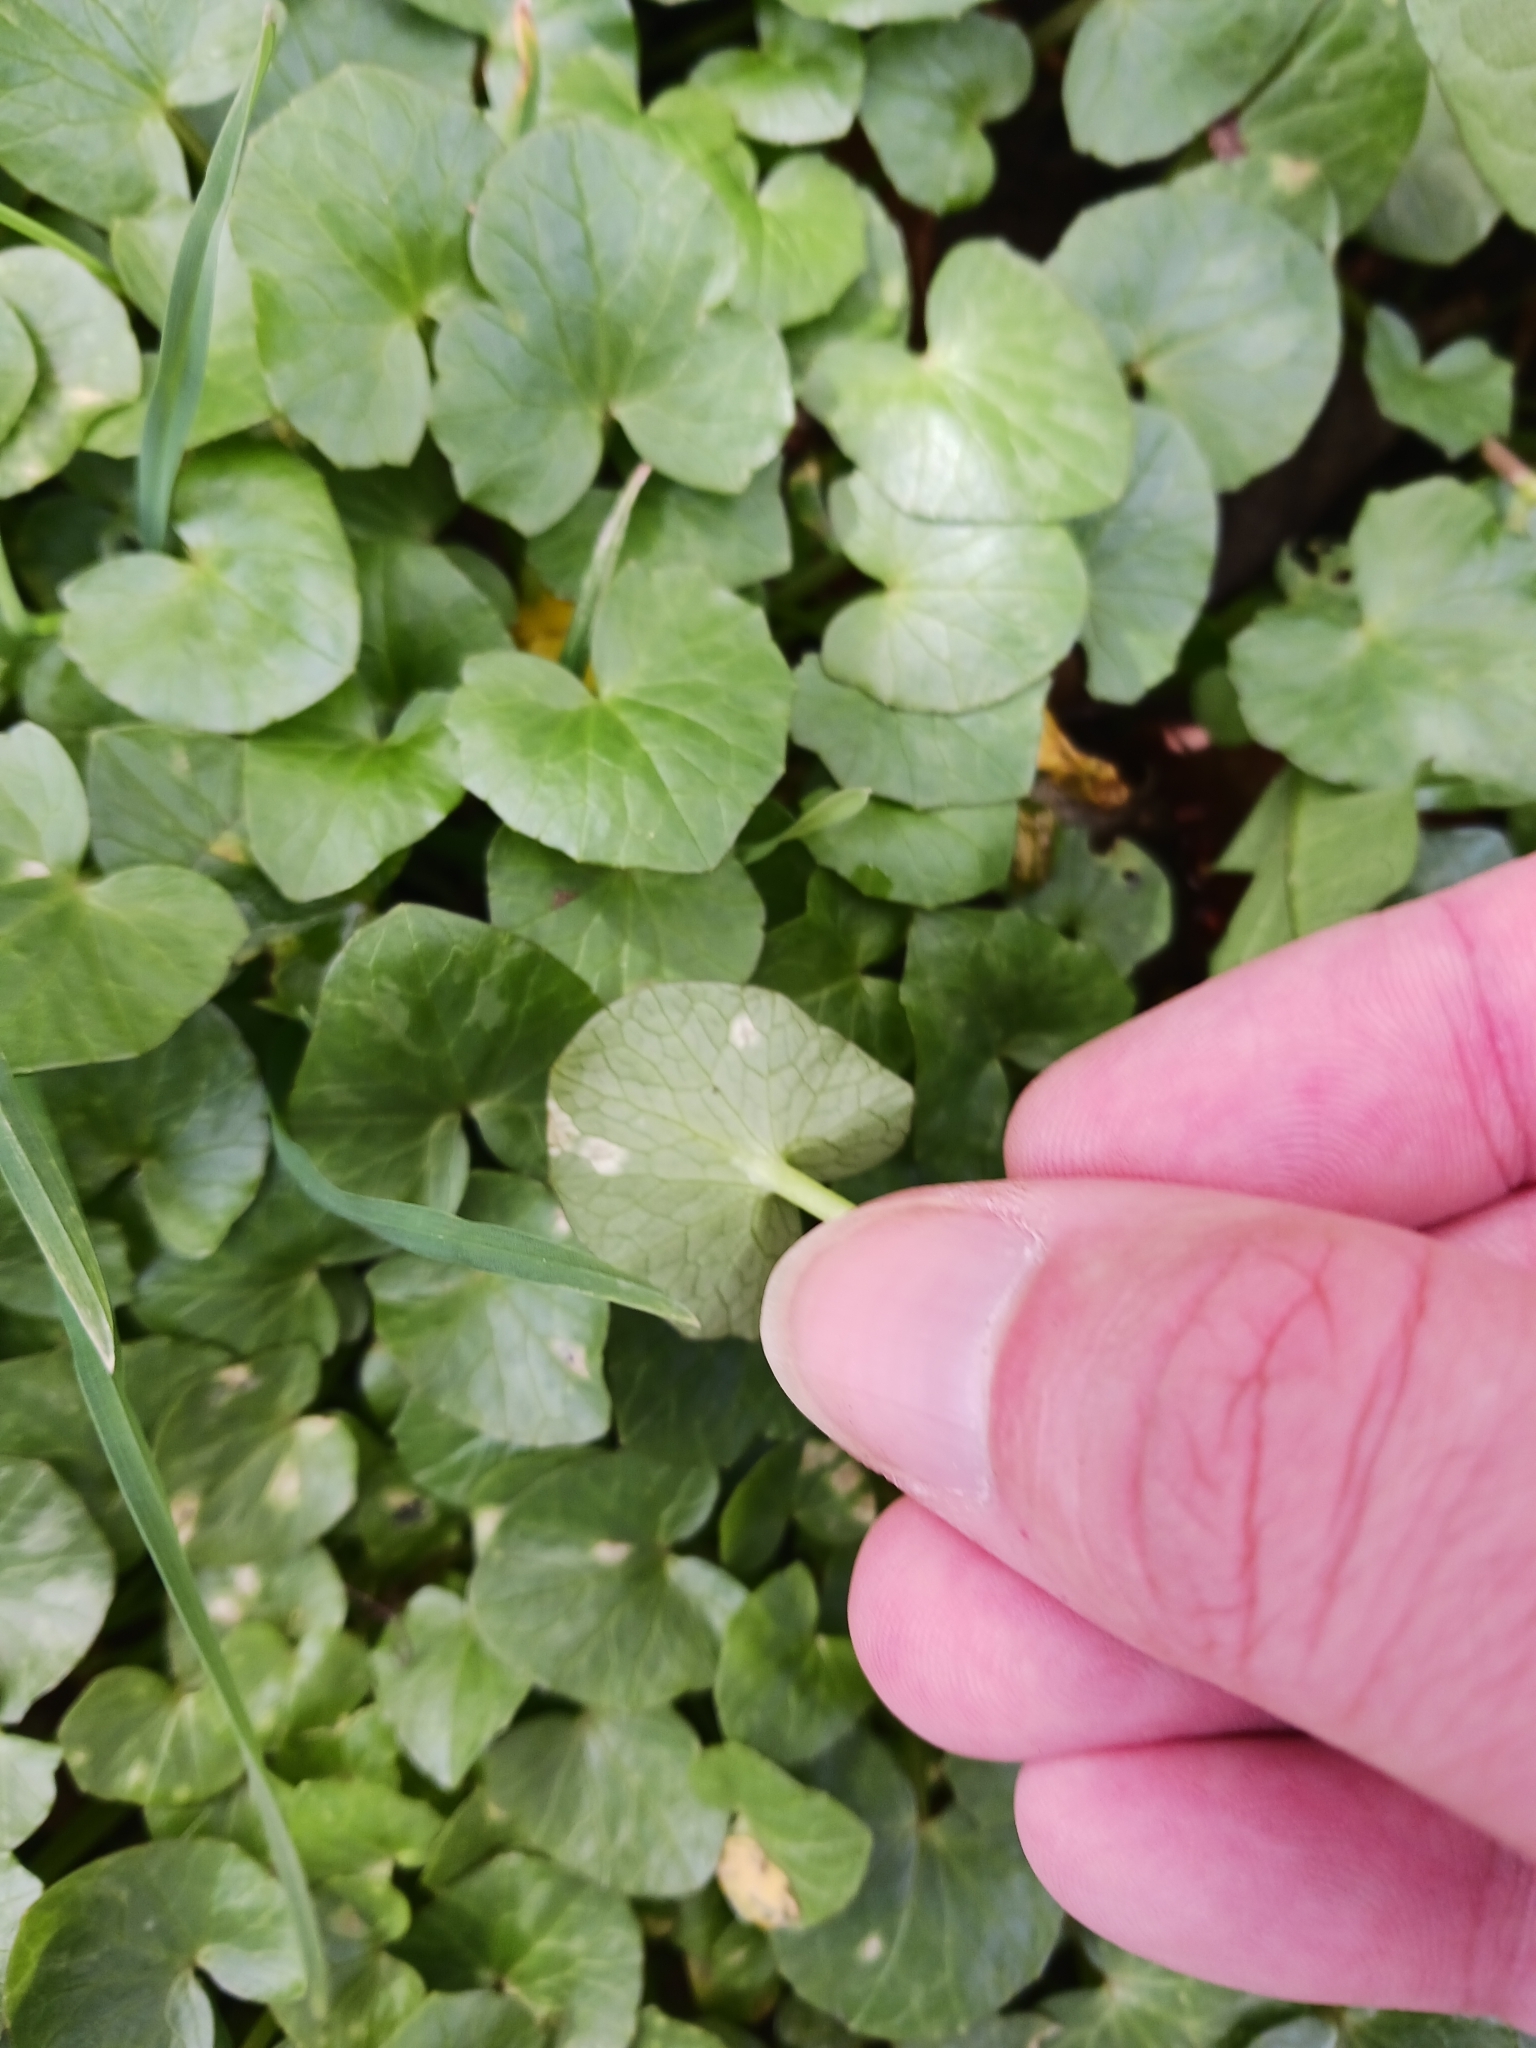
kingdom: Fungi
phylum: Basidiomycota
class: Exobasidiomycetes
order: Entylomatales
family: Entylomataceae
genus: Entyloma
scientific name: Entyloma ficariae
